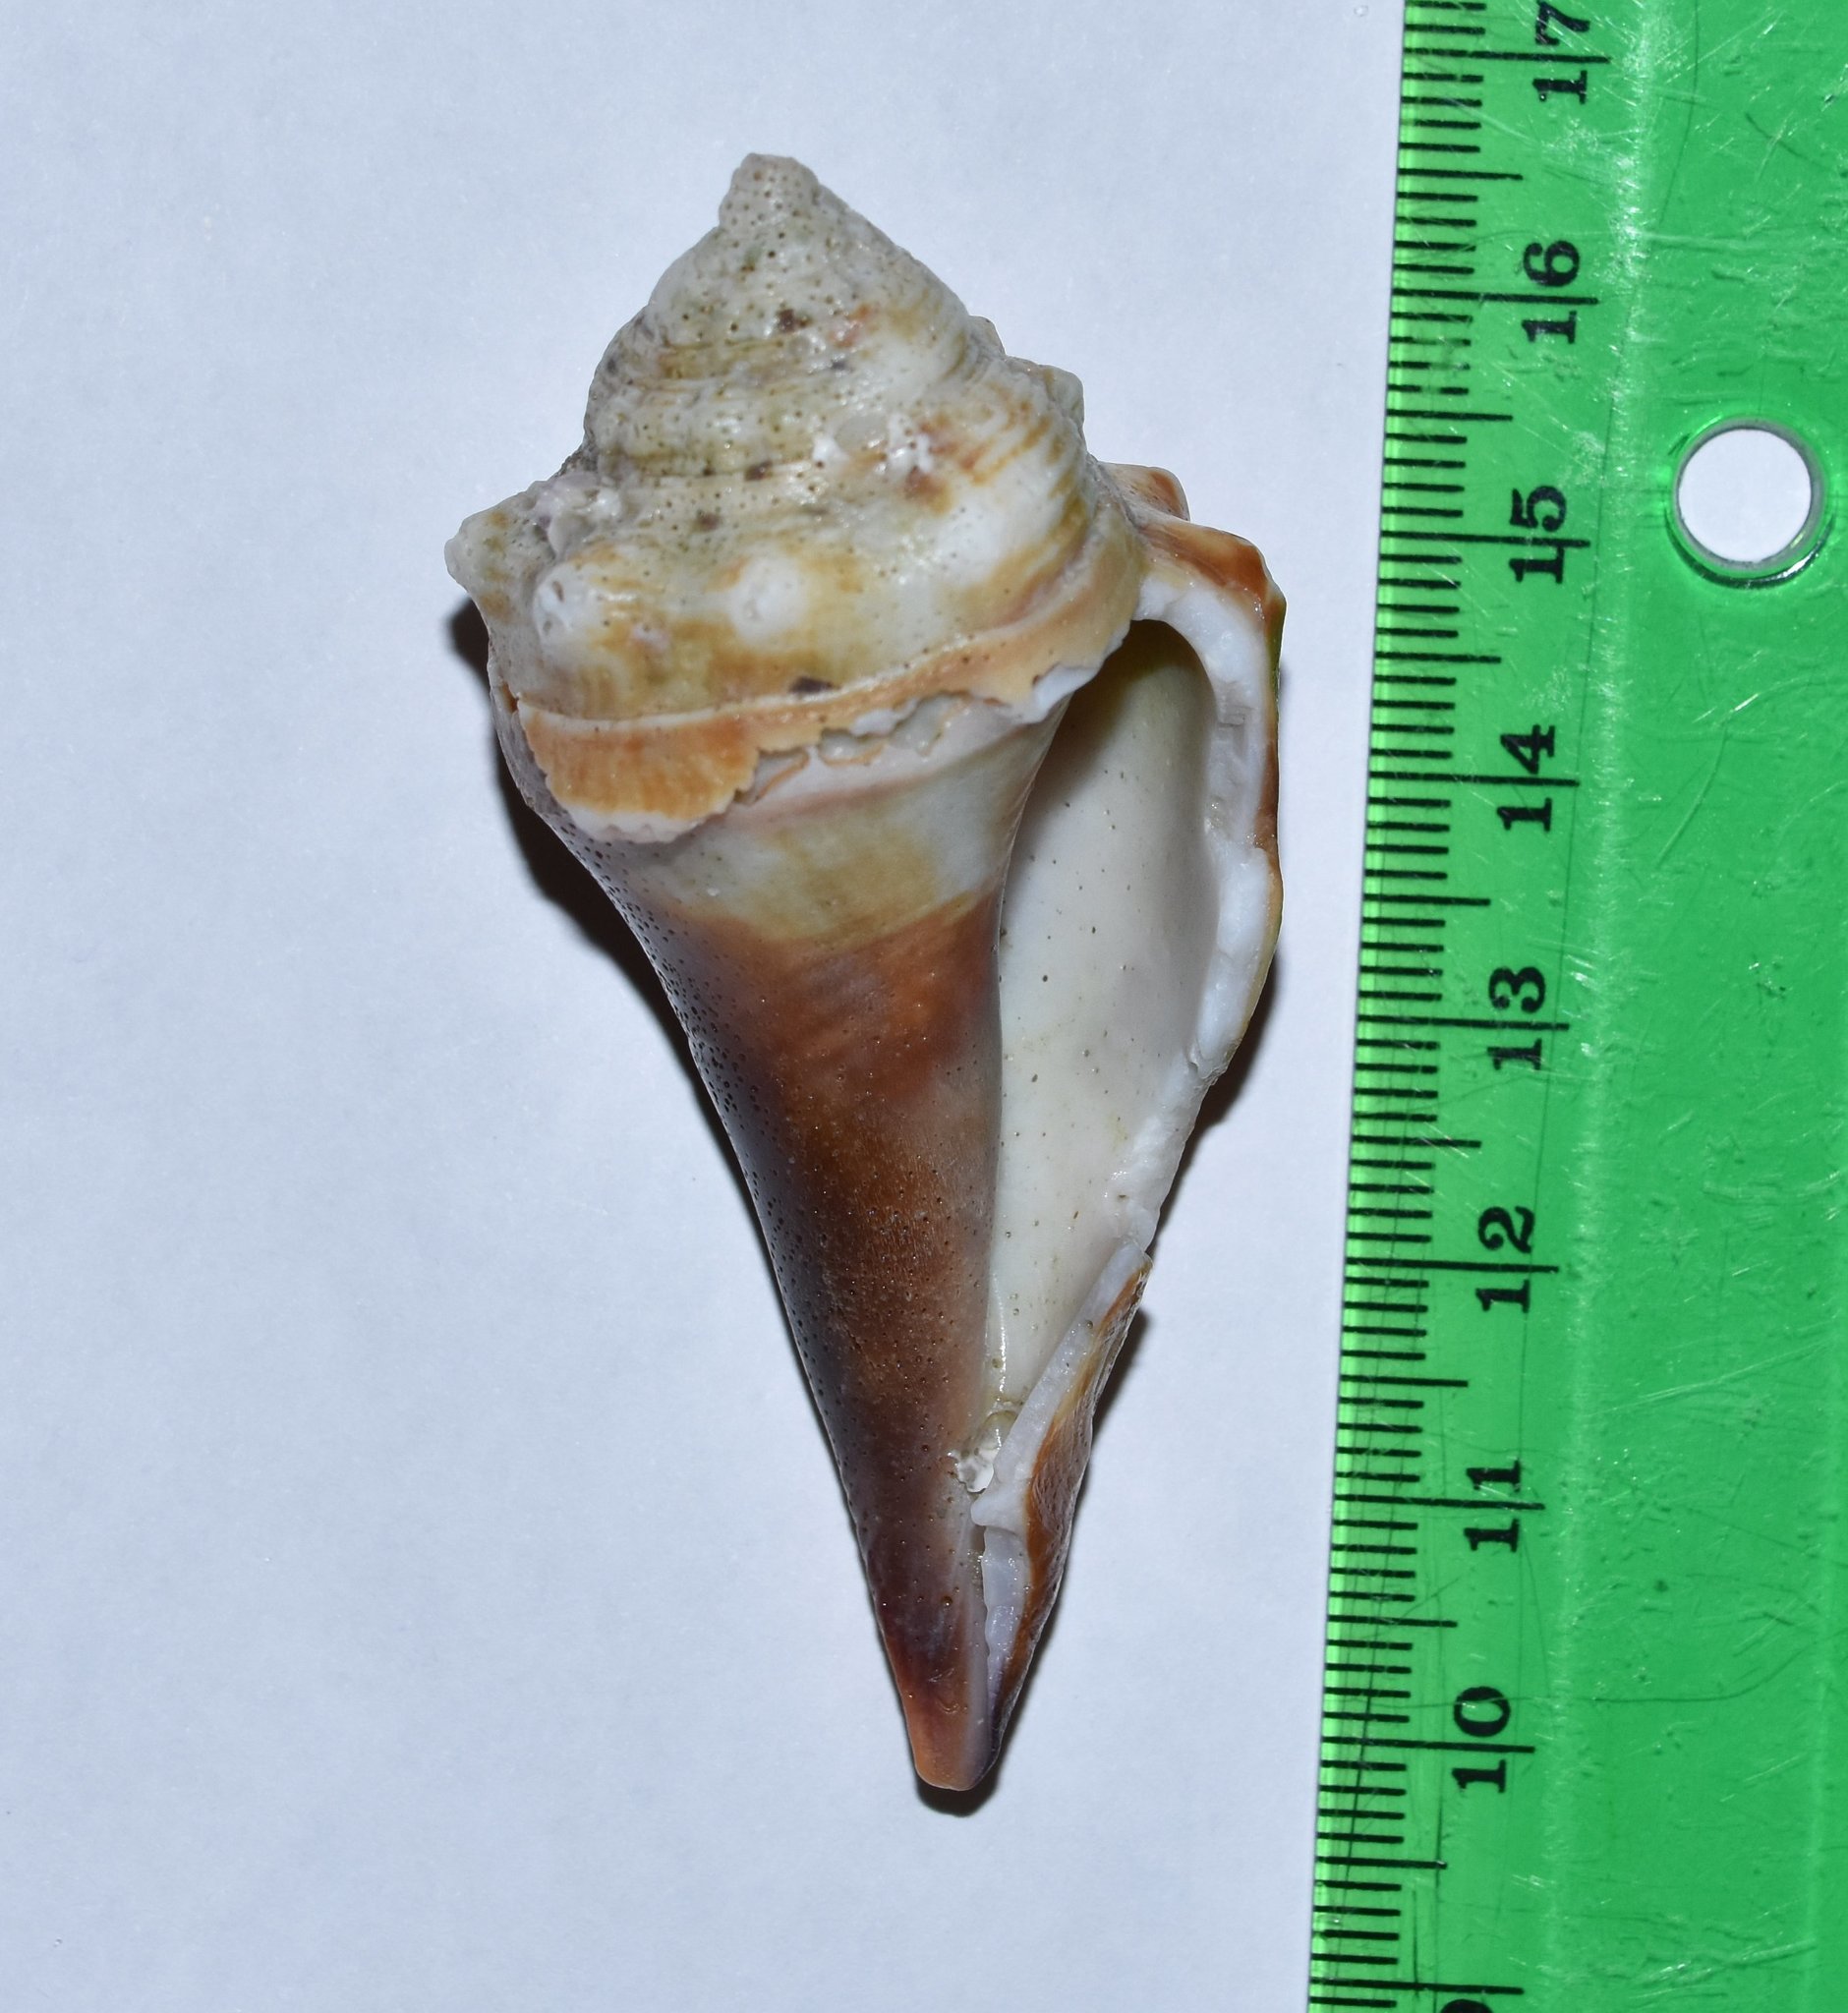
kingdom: Animalia
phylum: Mollusca
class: Gastropoda
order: Littorinimorpha
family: Strombidae
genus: Strombus
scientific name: Strombus alatus
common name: Florida fighting conch
